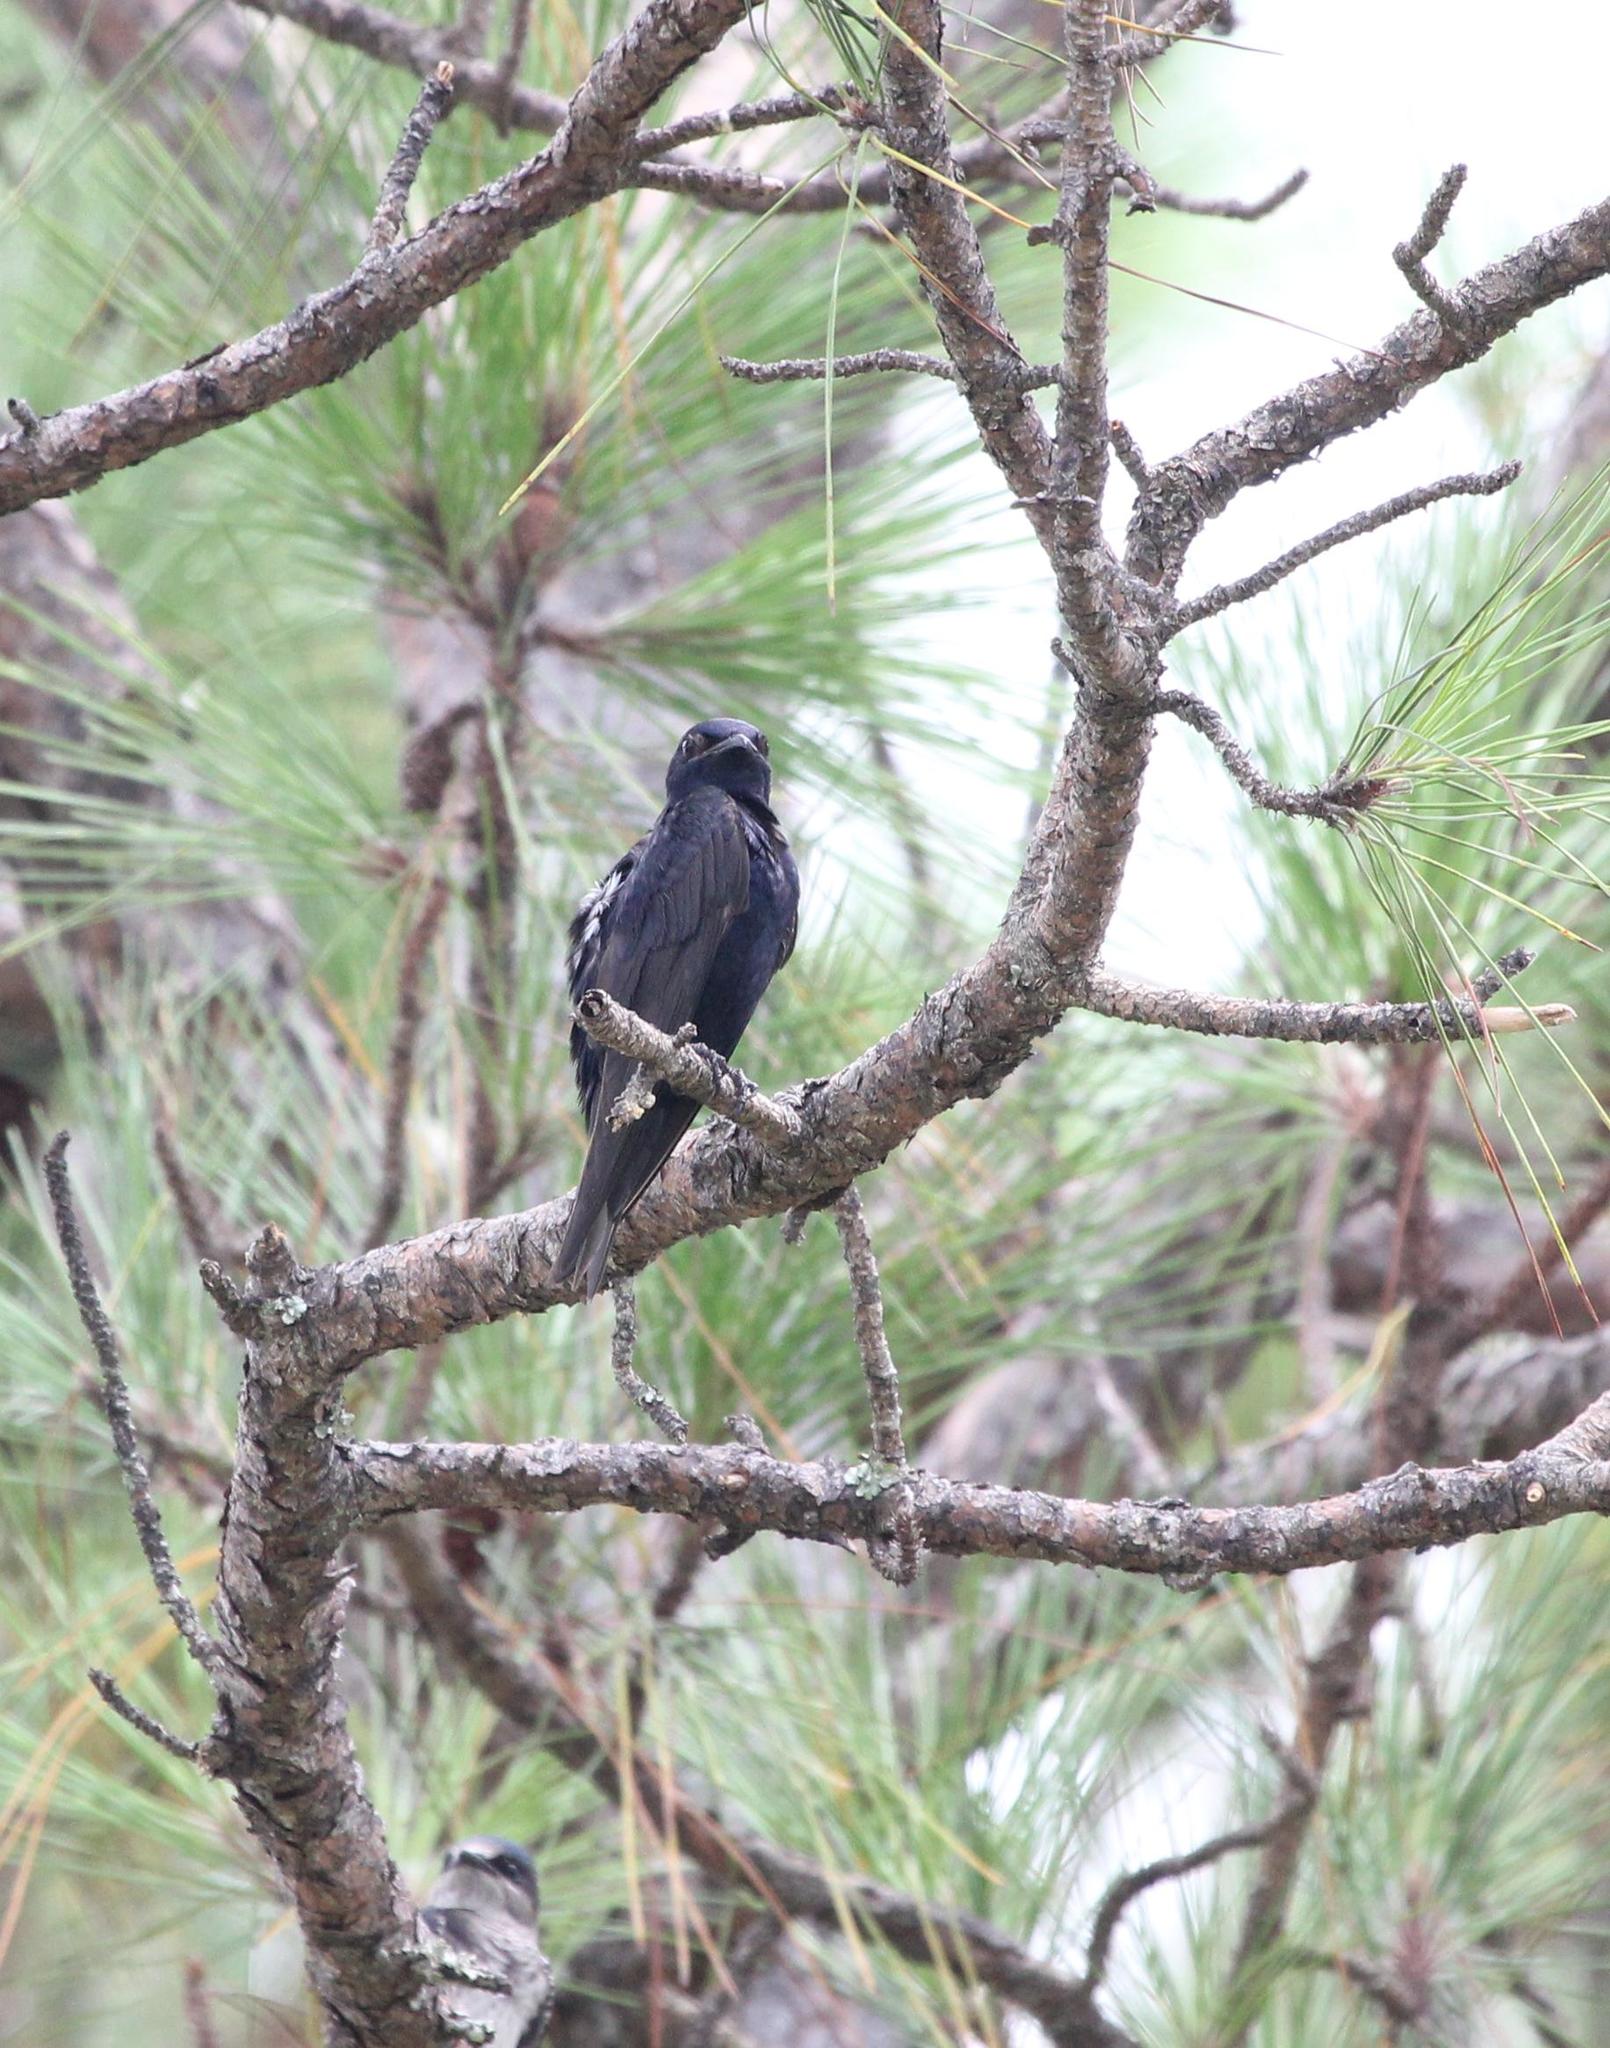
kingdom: Animalia
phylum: Chordata
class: Aves
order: Passeriformes
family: Hirundinidae
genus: Progne
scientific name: Progne subis
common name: Purple martin
